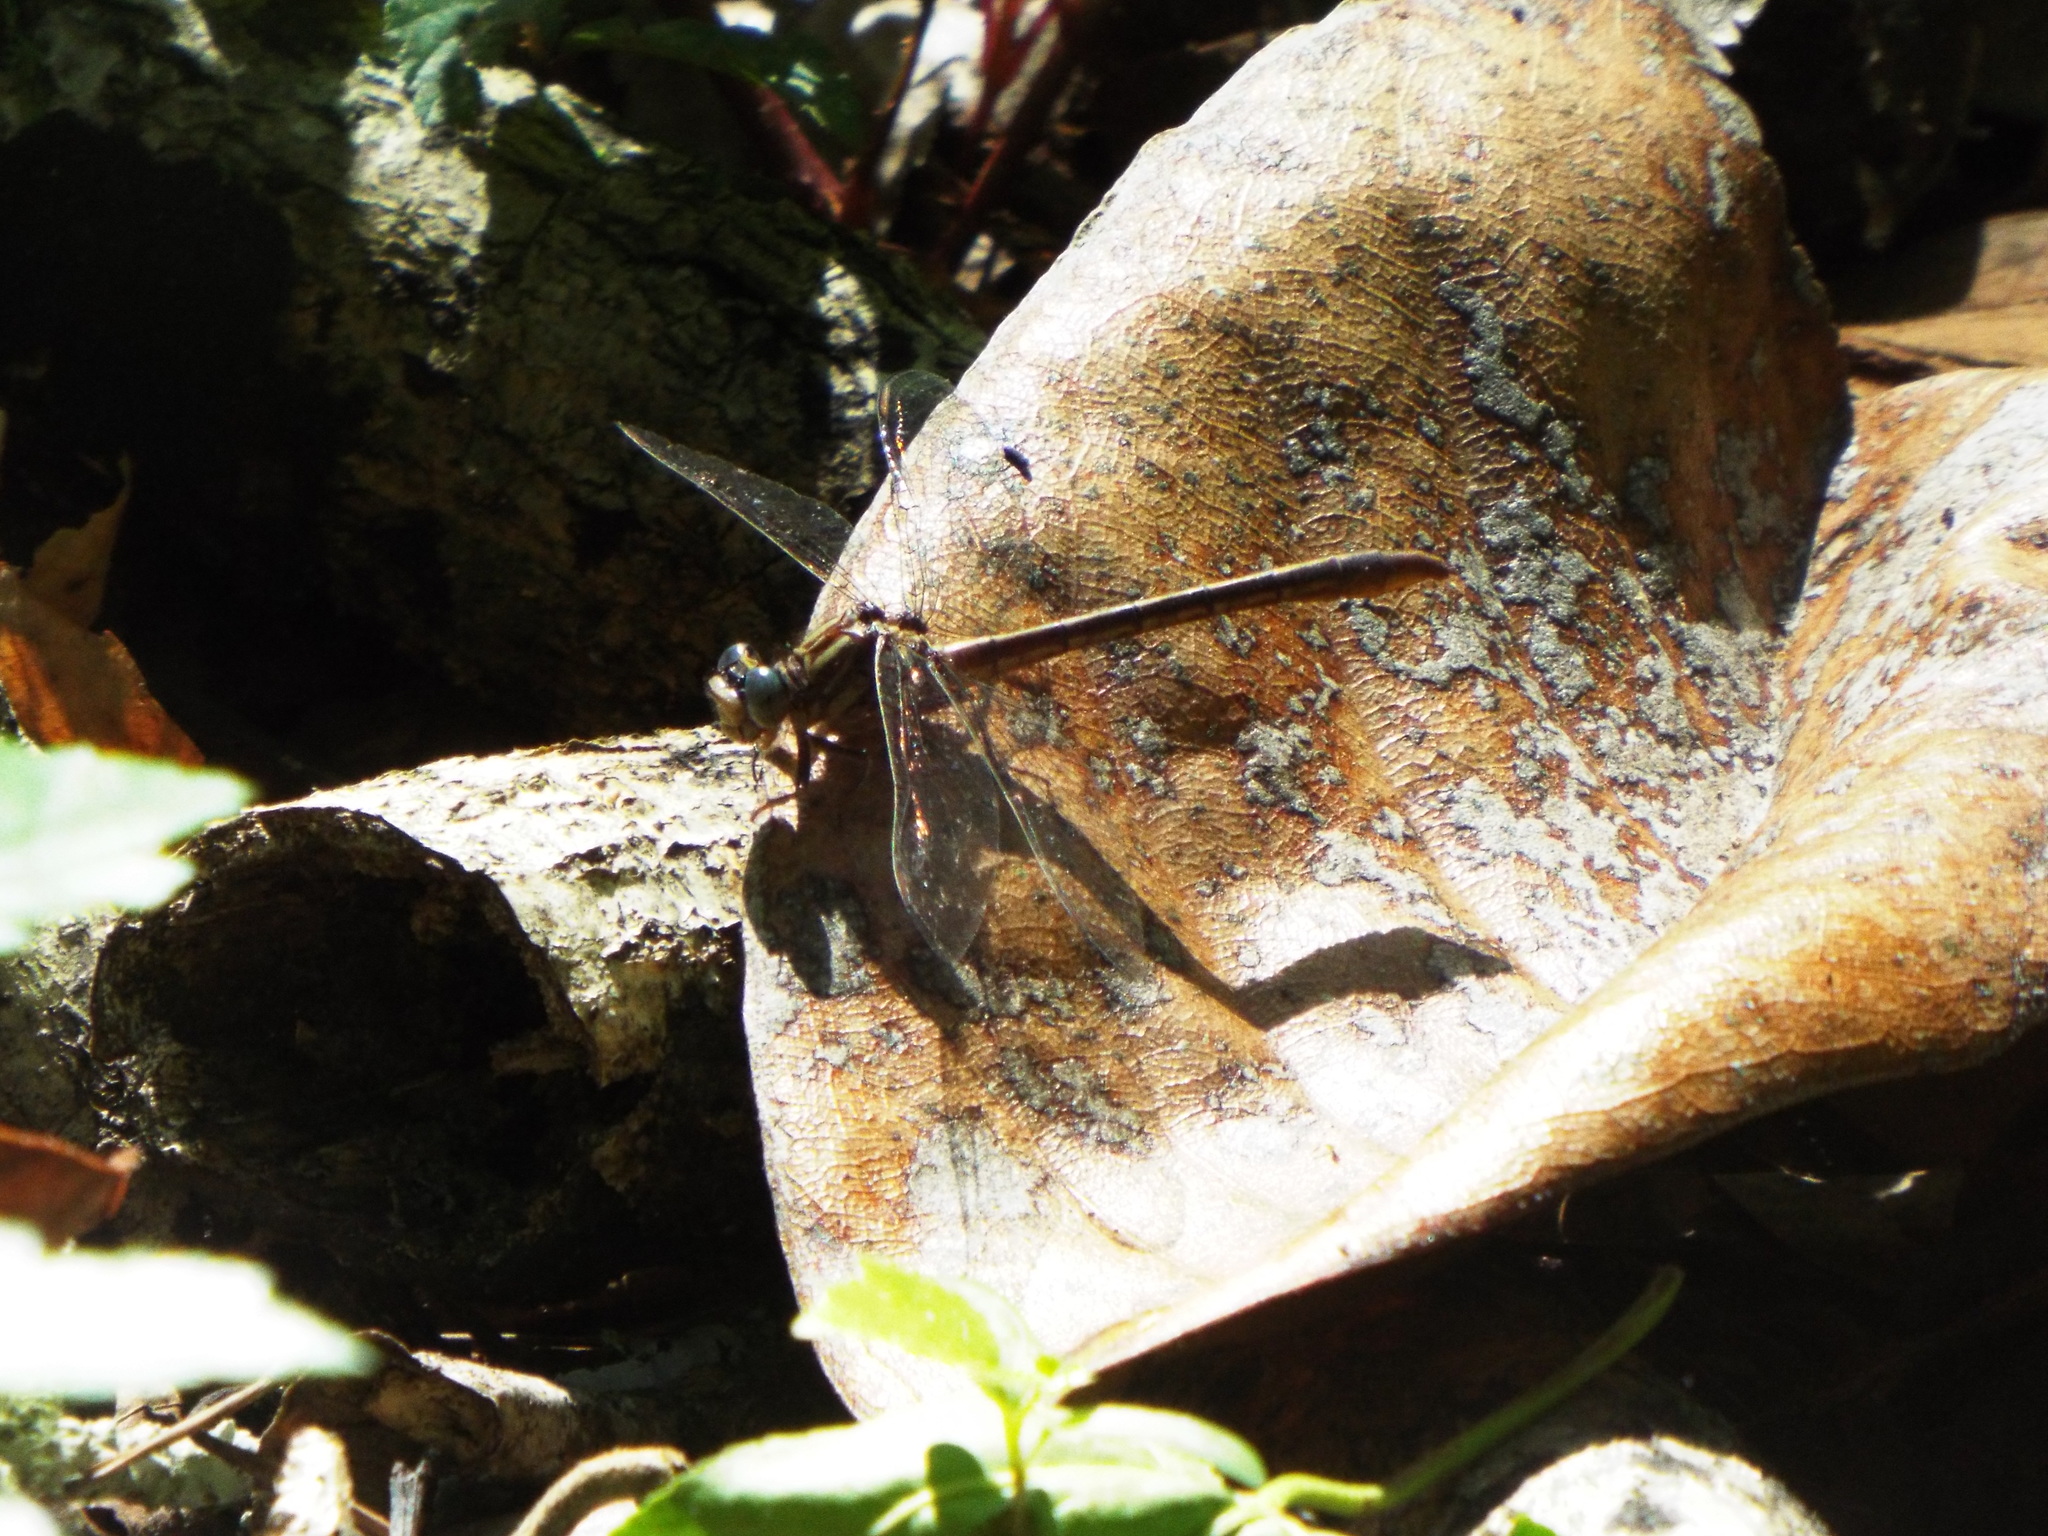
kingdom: Animalia
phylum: Arthropoda
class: Insecta
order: Odonata
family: Gomphidae
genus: Phanogomphus
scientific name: Phanogomphus minutus
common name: Cypress clubtail
